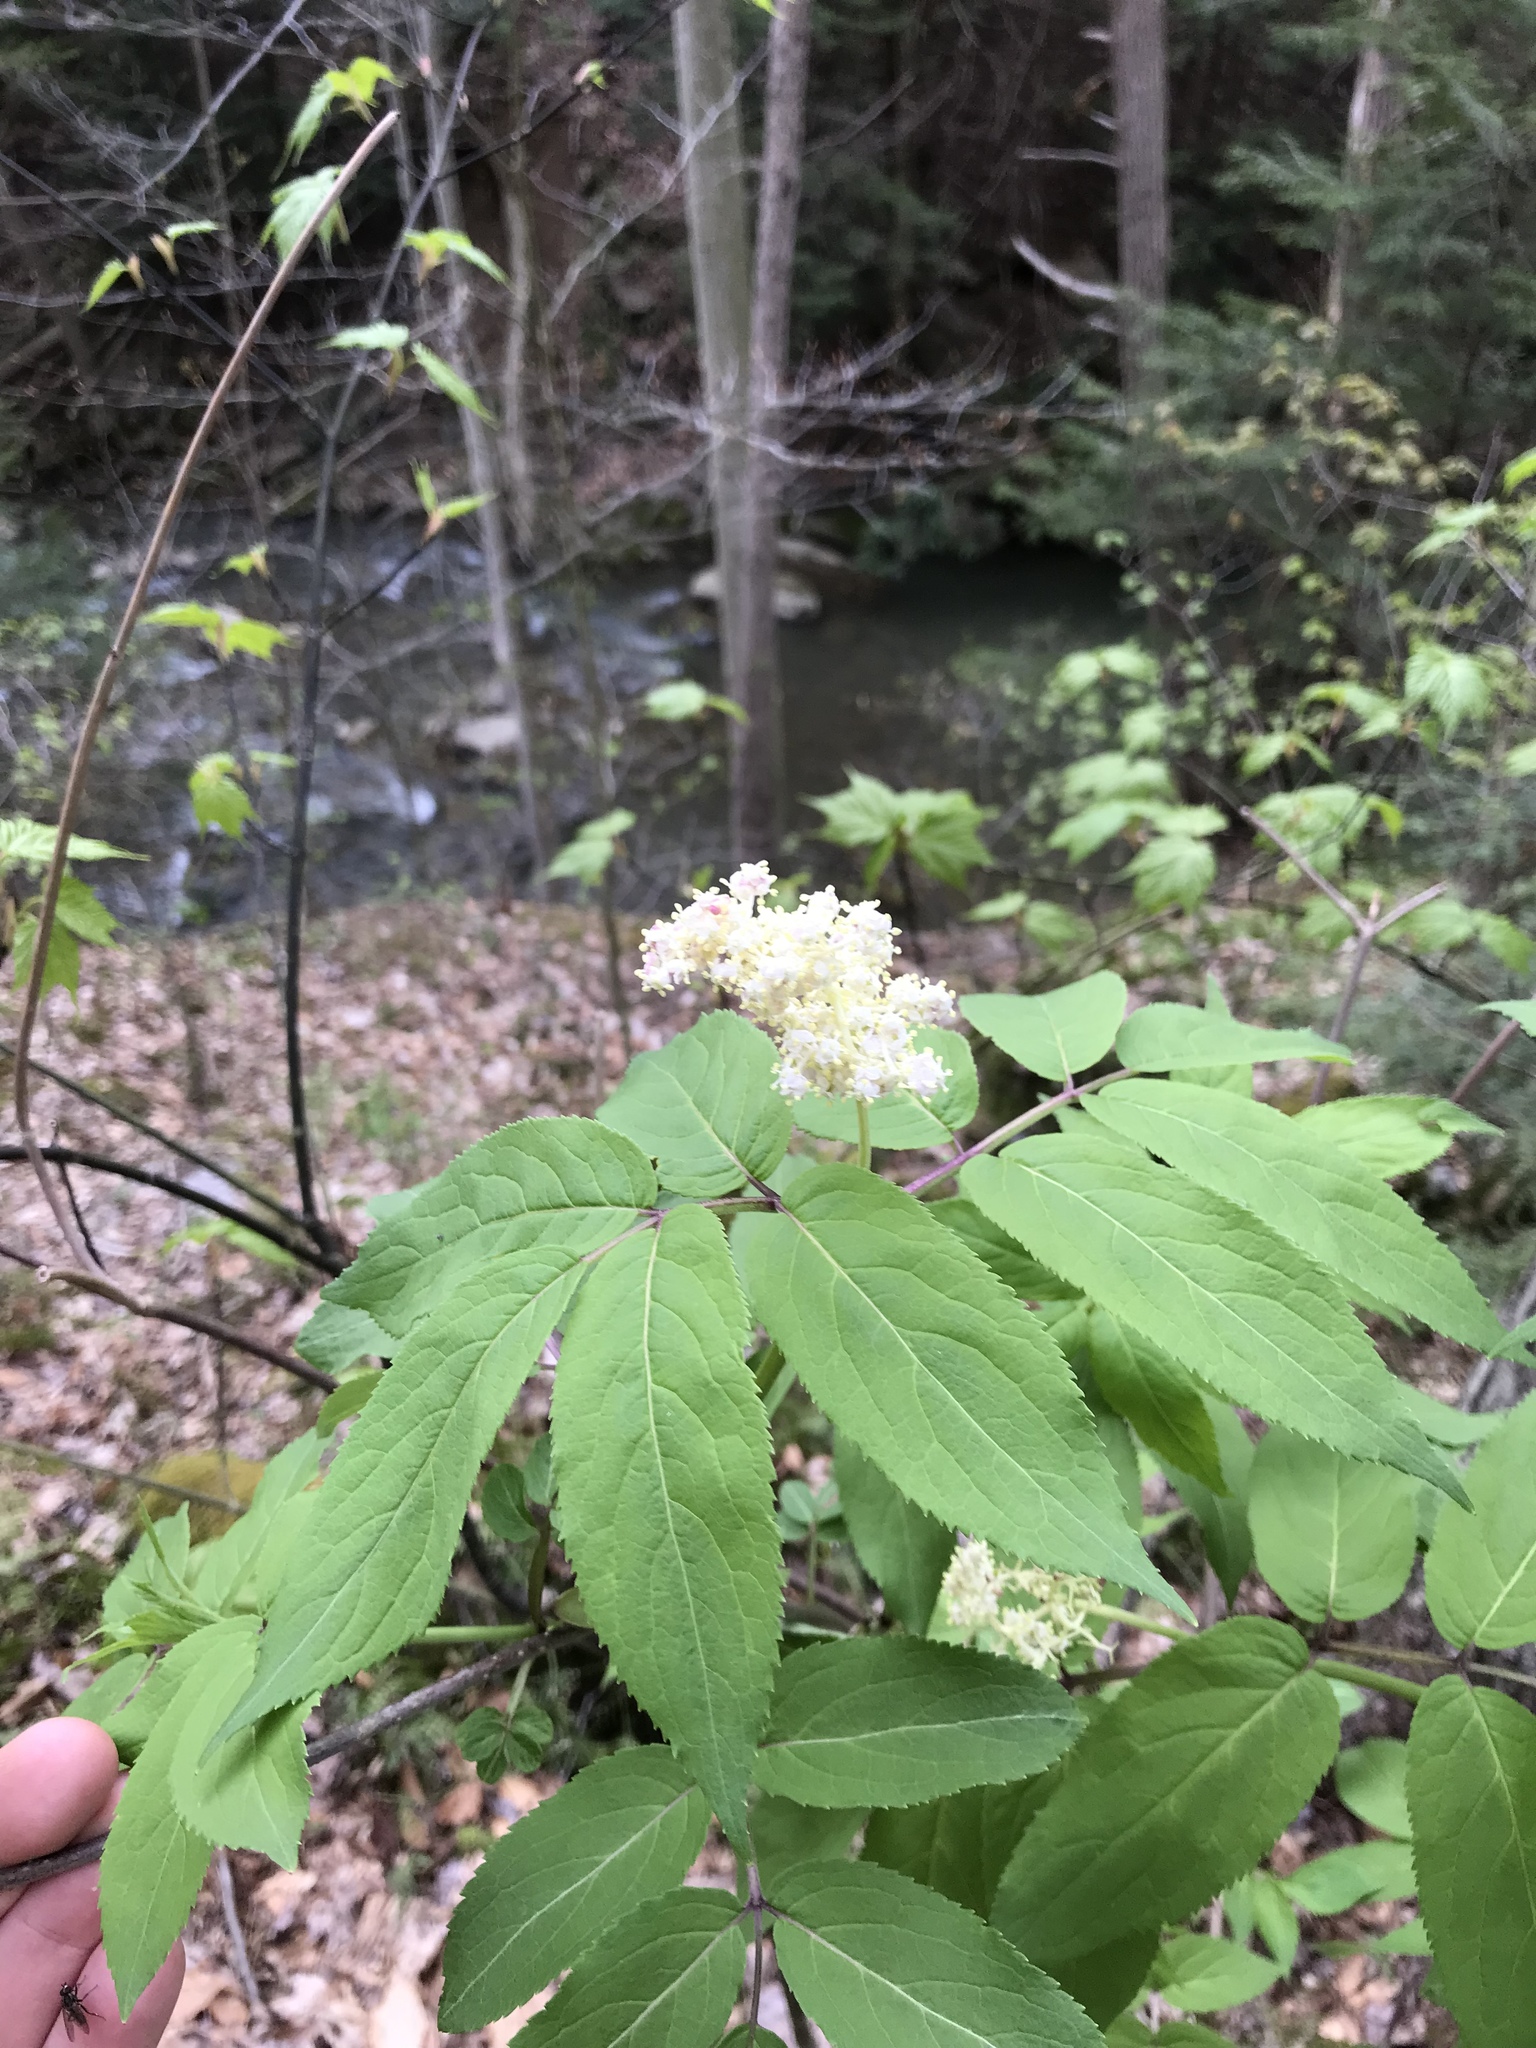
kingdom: Plantae
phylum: Tracheophyta
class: Magnoliopsida
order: Dipsacales
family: Viburnaceae
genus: Sambucus
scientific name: Sambucus racemosa
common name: Red-berried elder
